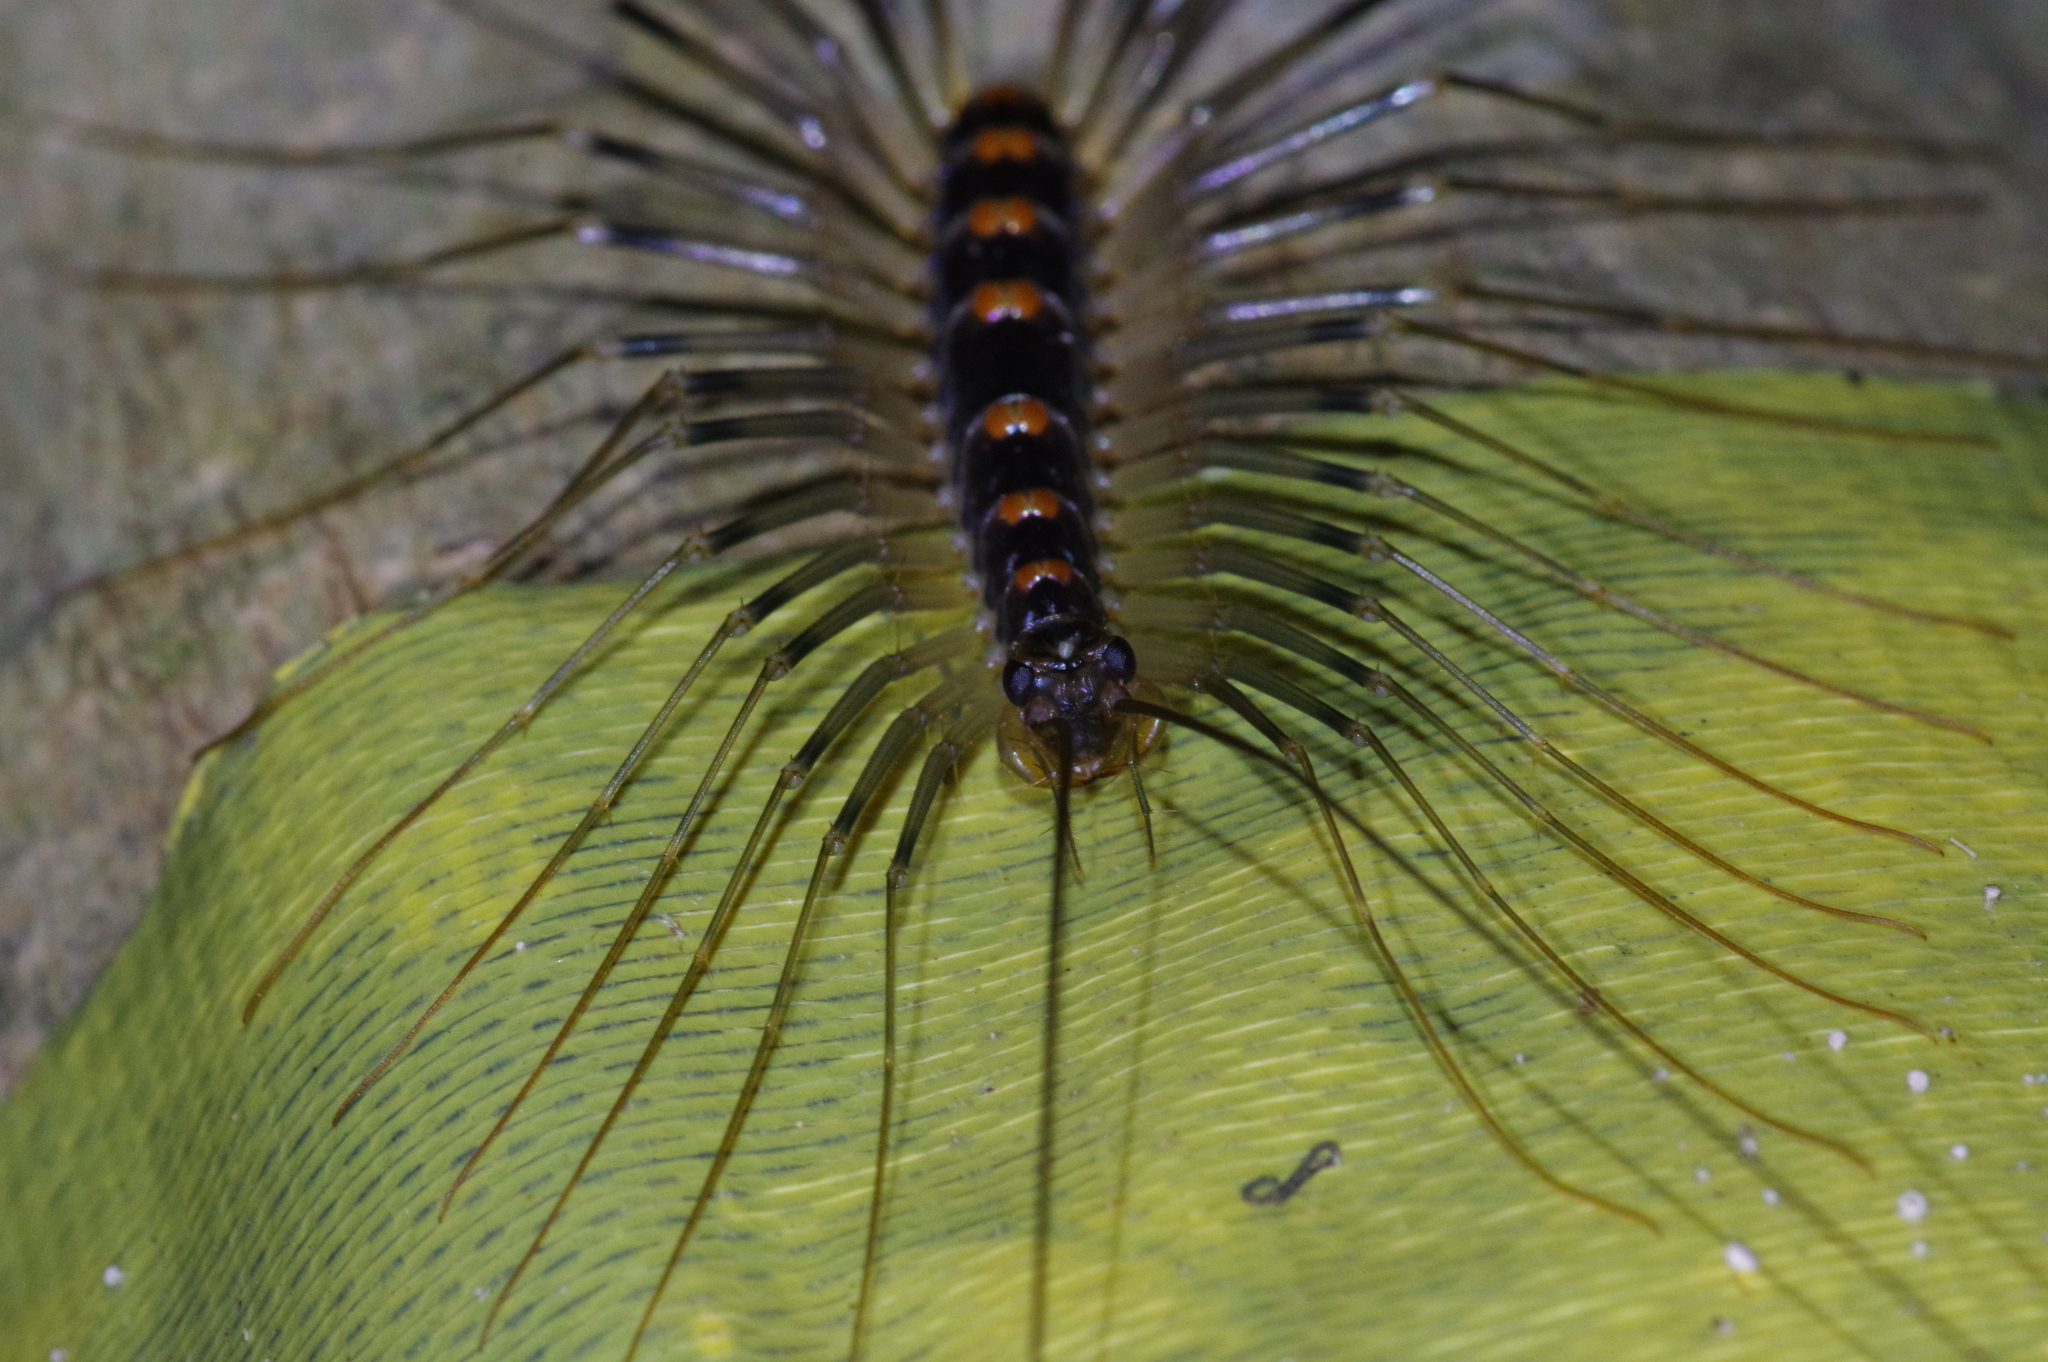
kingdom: Animalia
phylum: Arthropoda
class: Chilopoda
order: Scutigeromorpha
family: Scutigeridae
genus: Thereuopoda
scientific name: Thereuopoda clunifera
